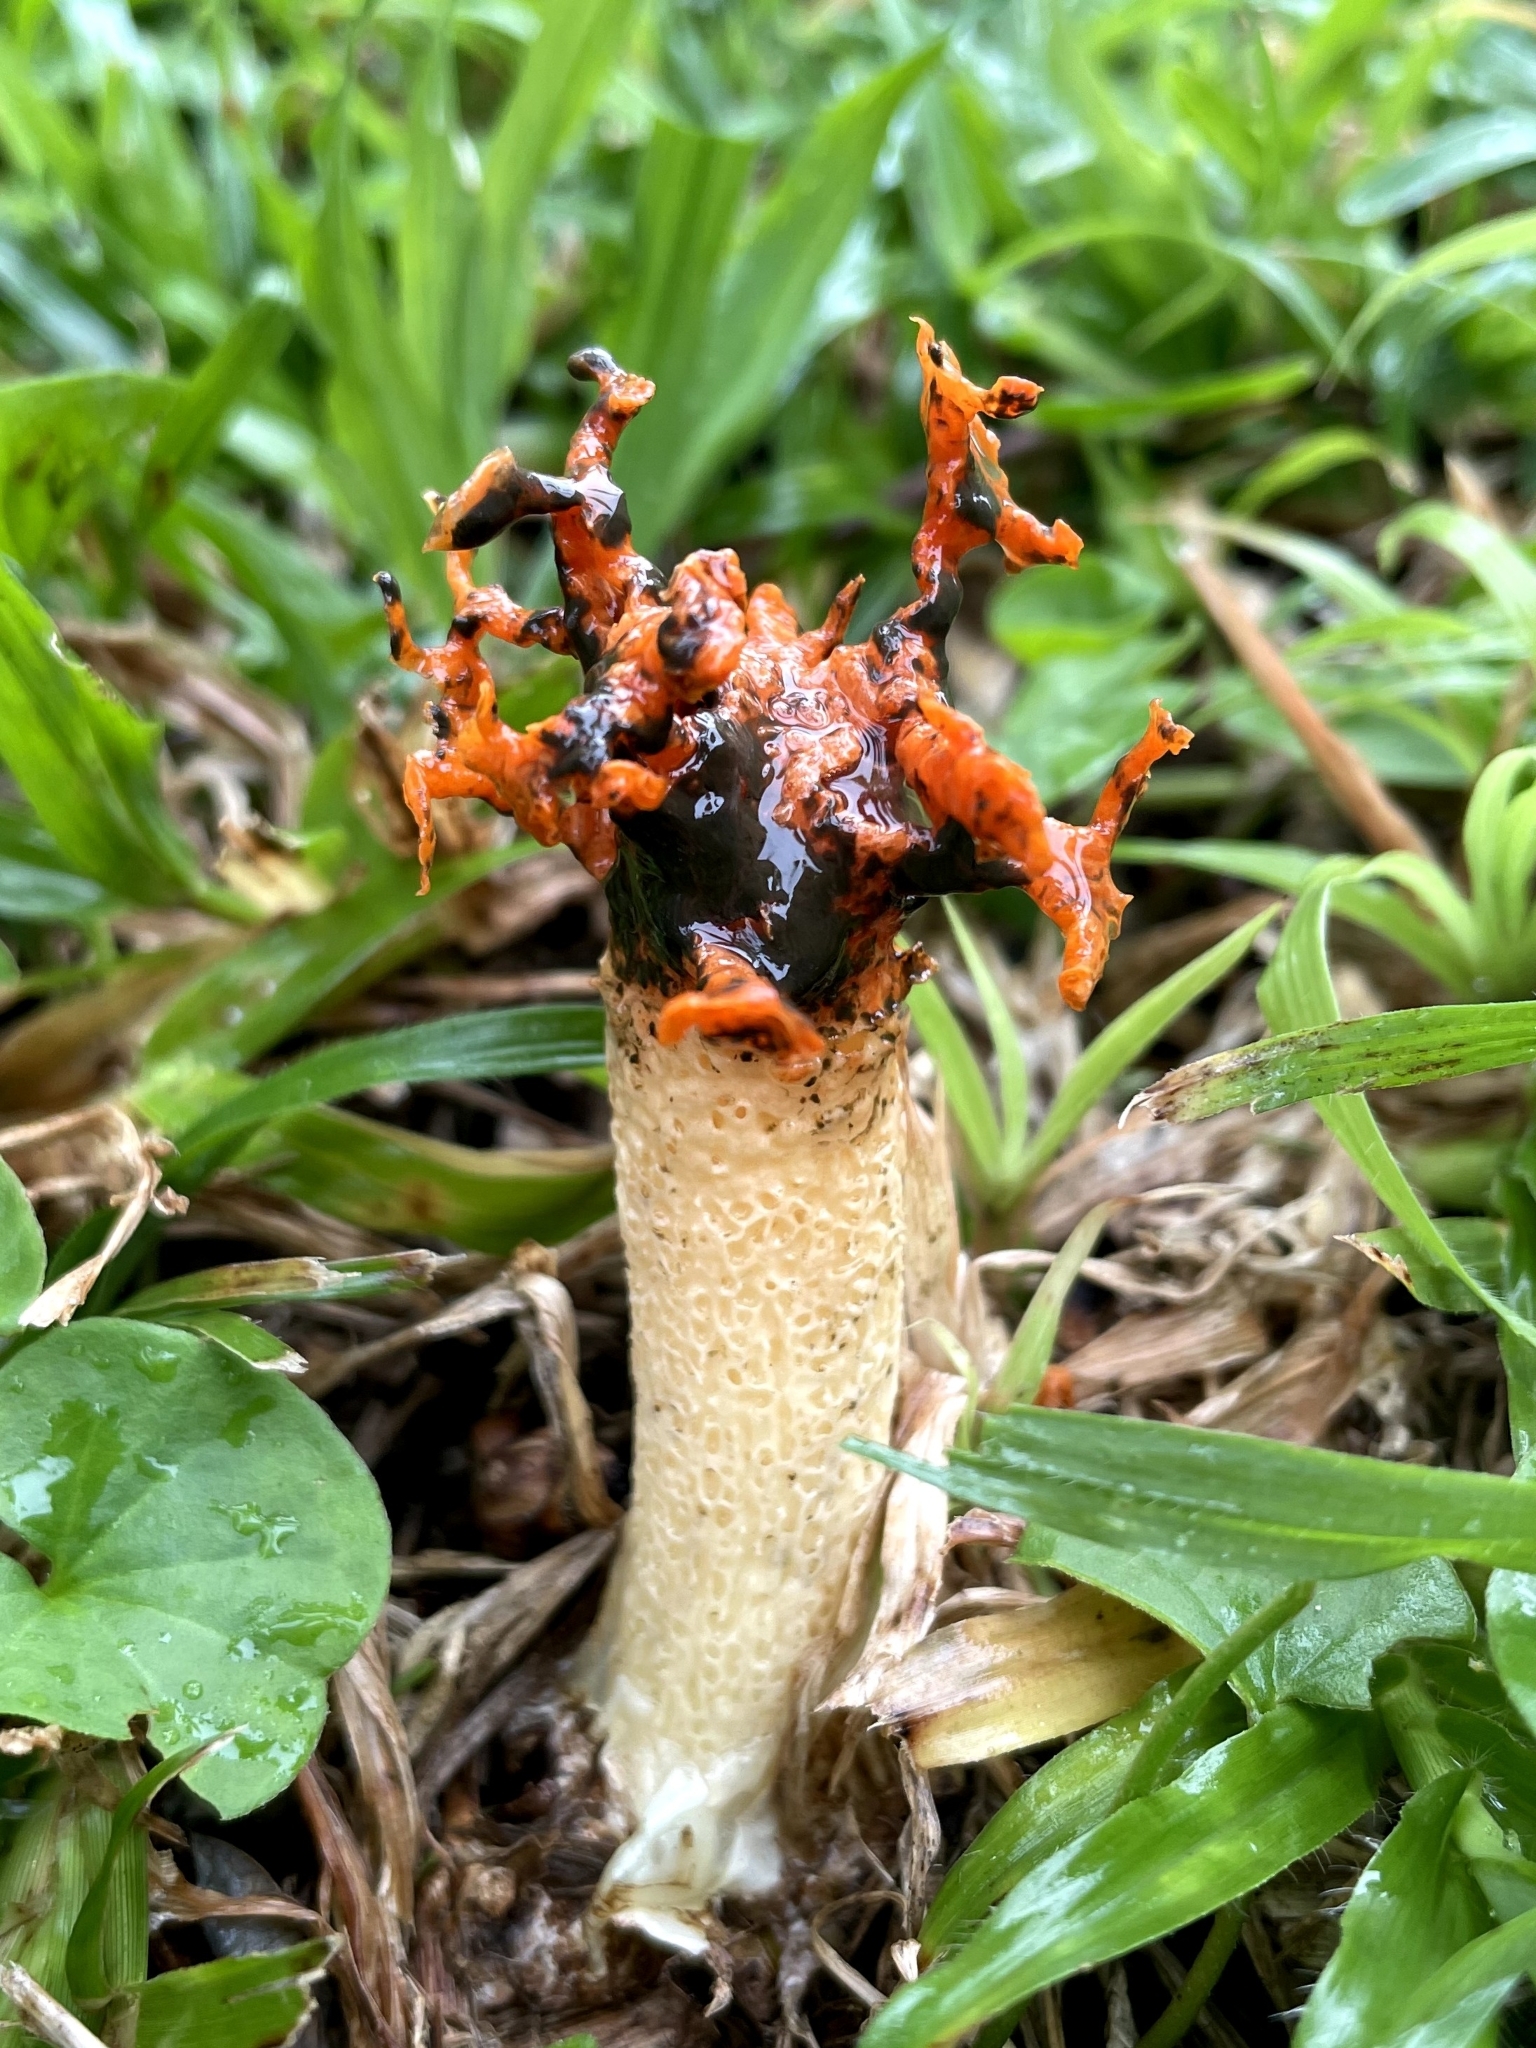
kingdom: Fungi
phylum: Basidiomycota
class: Agaricomycetes
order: Phallales
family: Phallaceae
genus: Lysurus
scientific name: Lysurus corallocephalus
